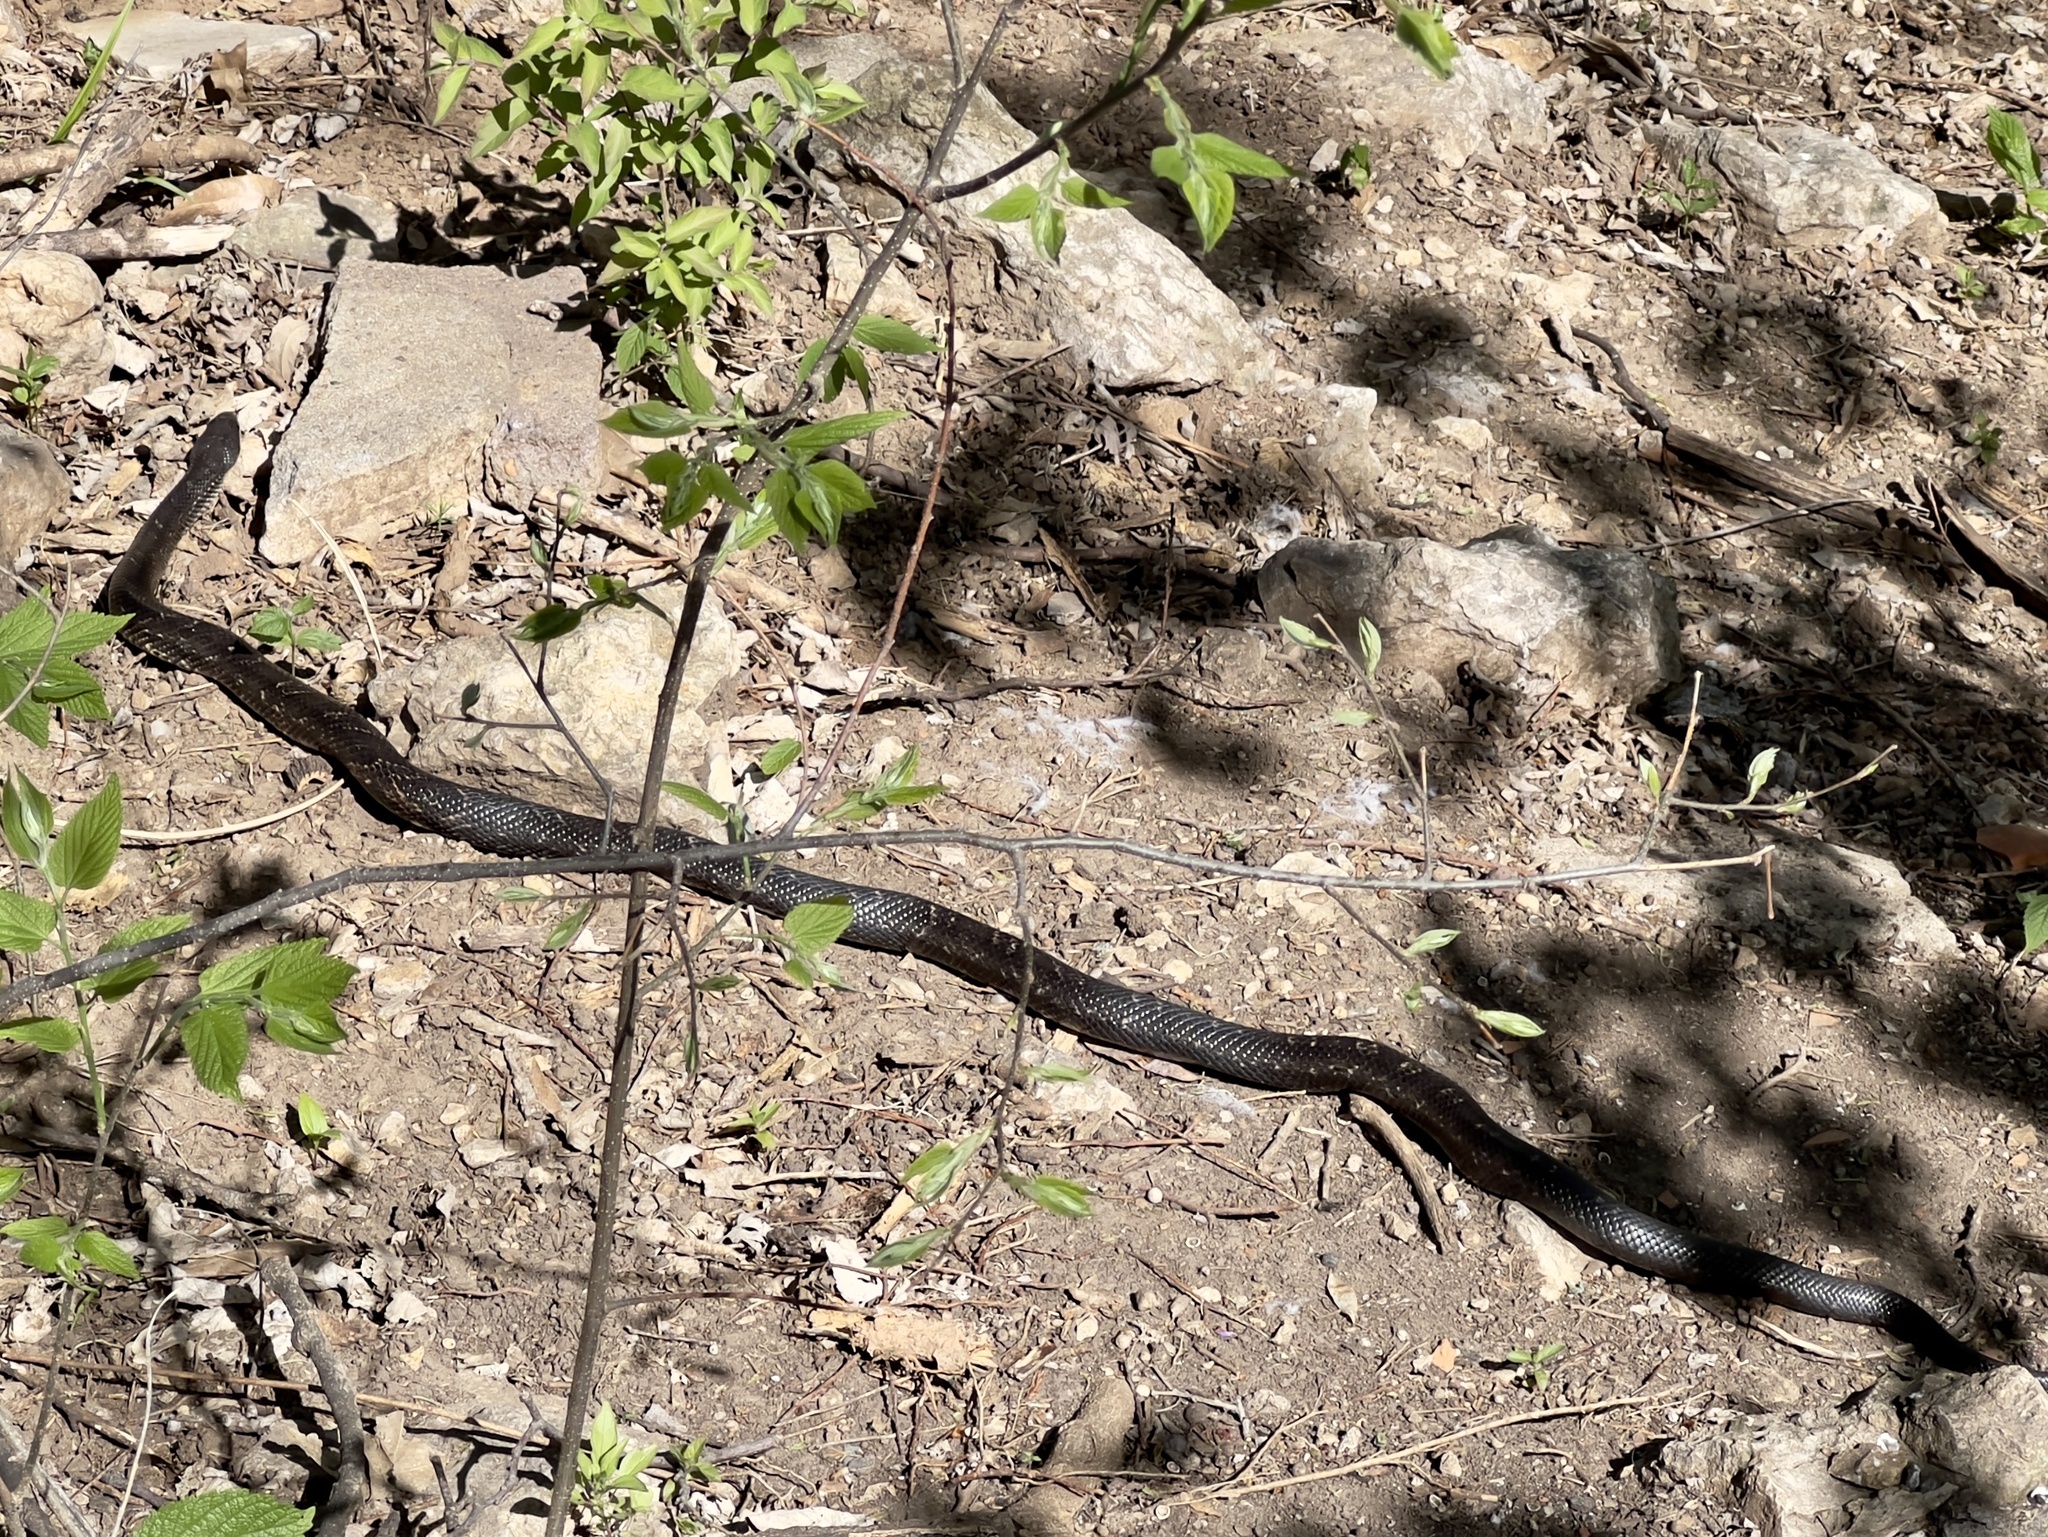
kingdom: Animalia
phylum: Chordata
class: Squamata
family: Colubridae
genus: Pantherophis
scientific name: Pantherophis obsoletus
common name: Black rat snake
